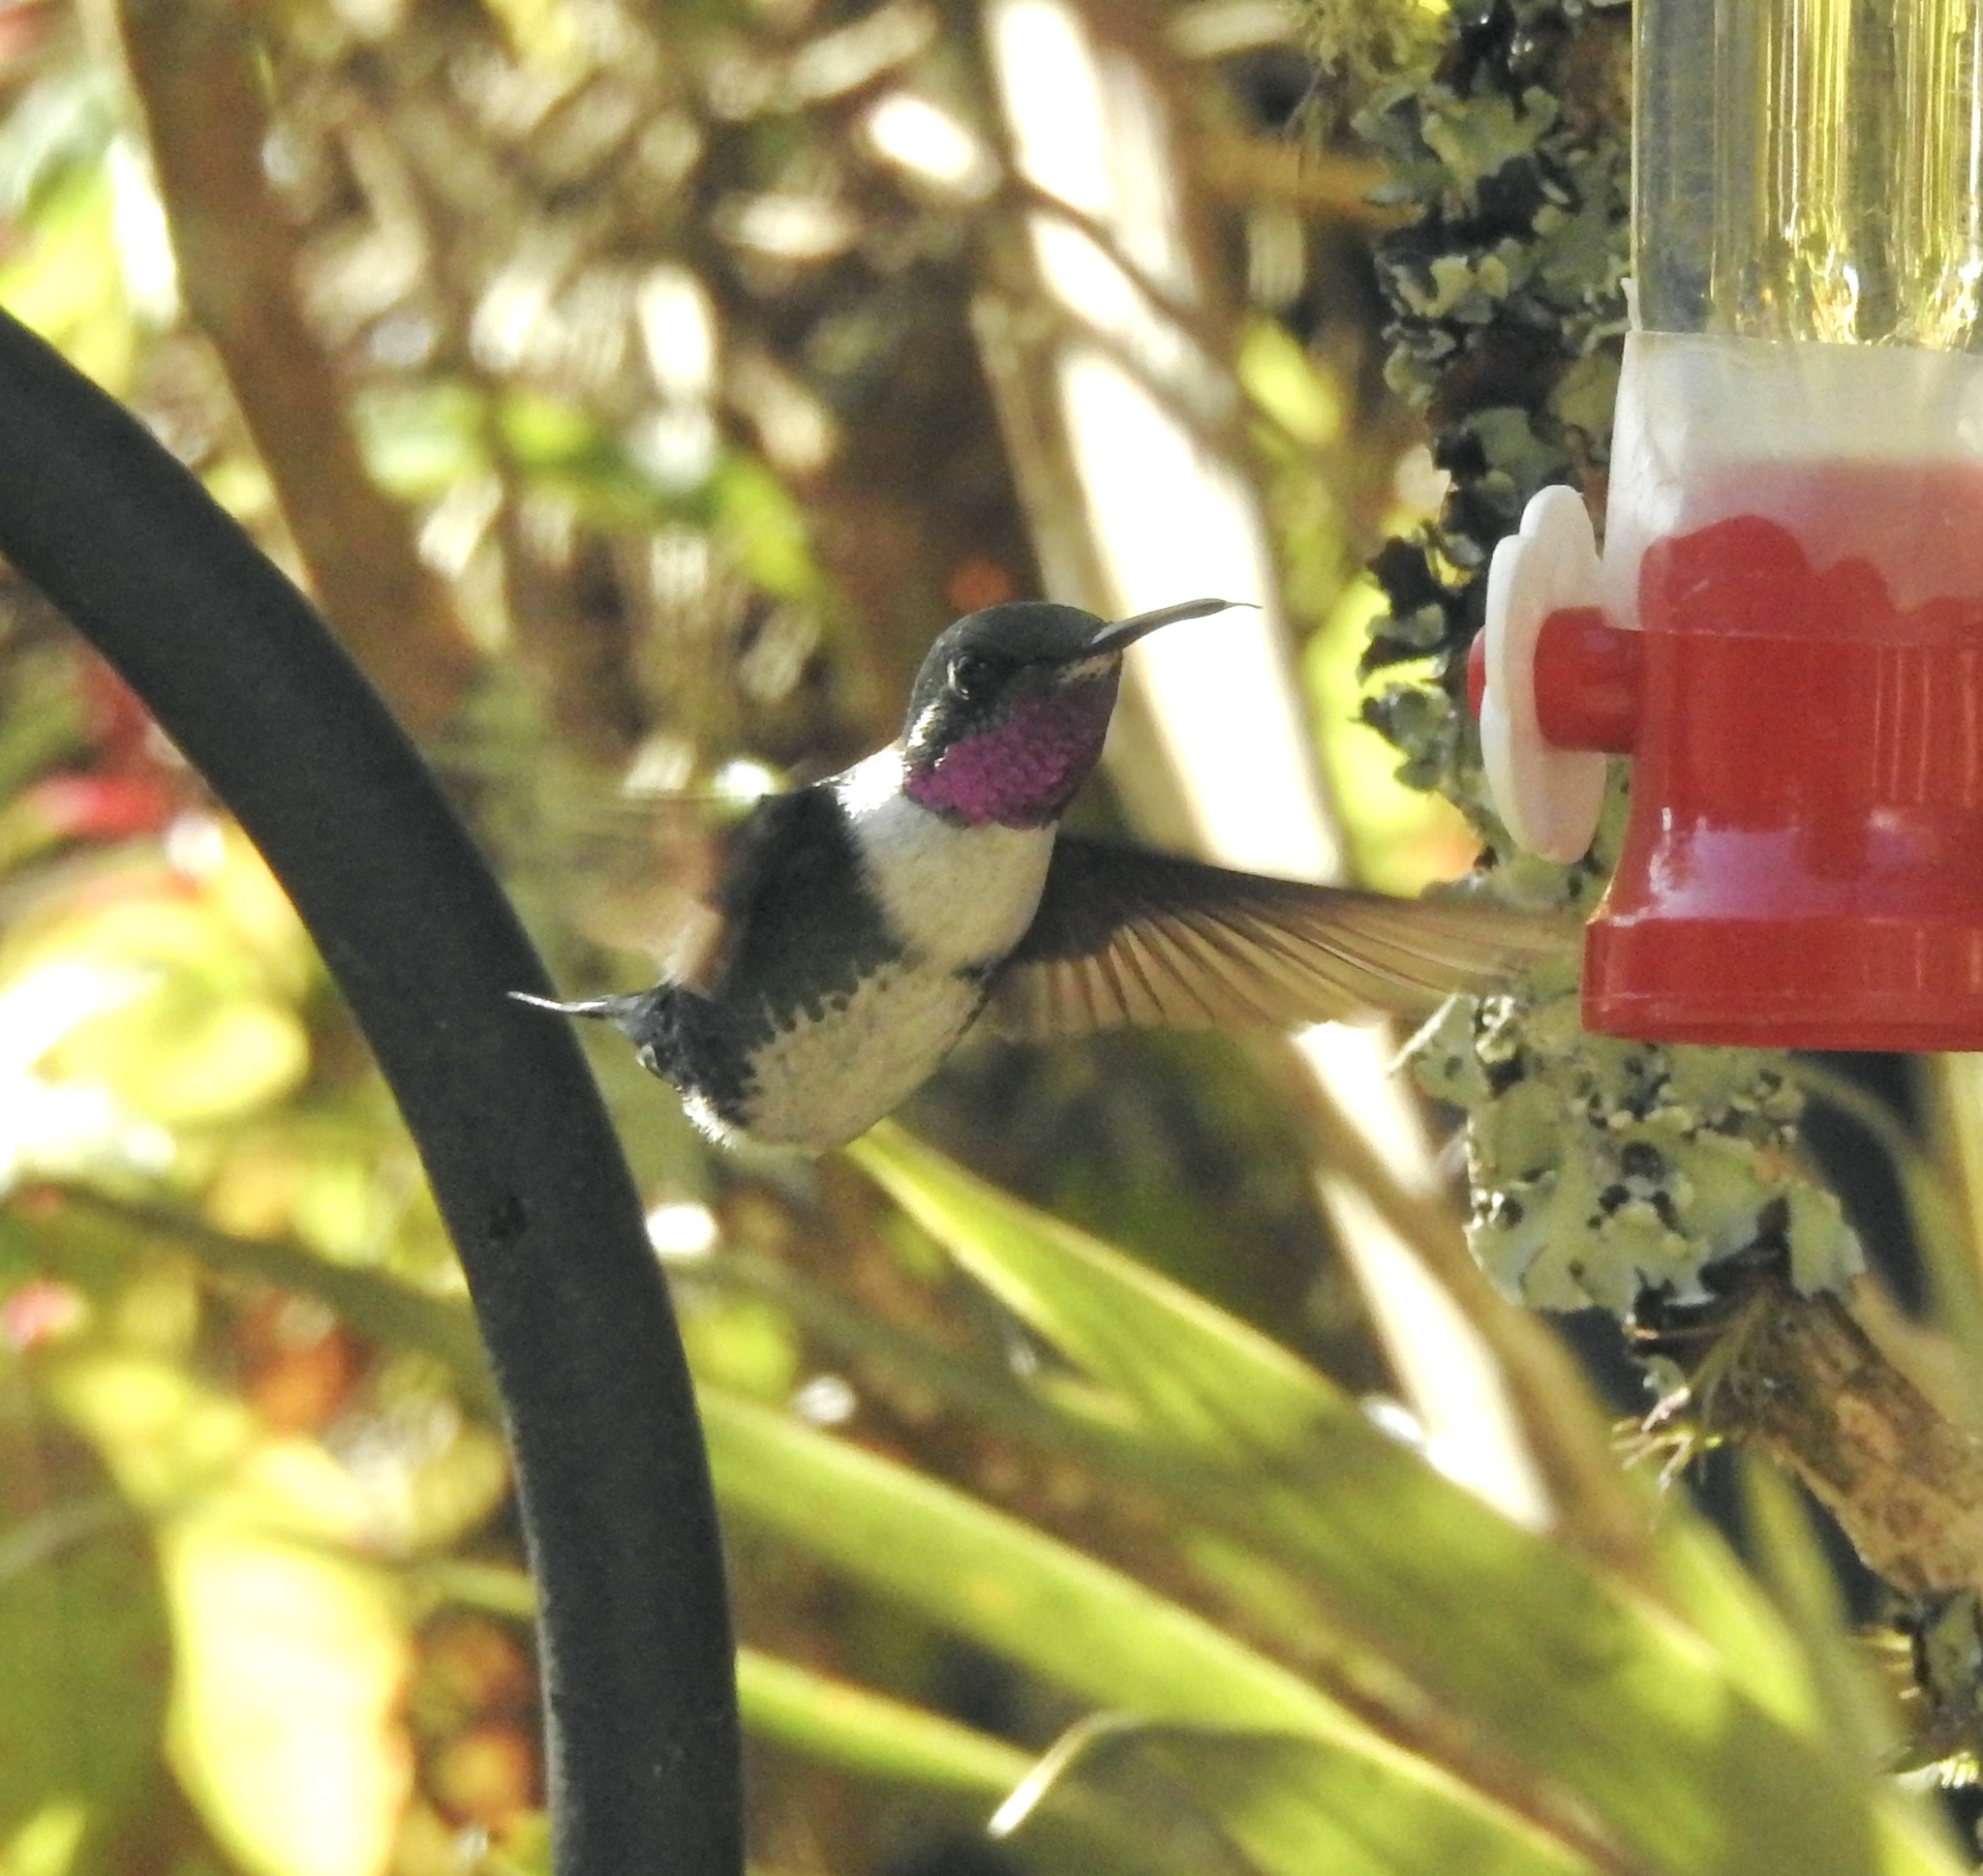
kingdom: Animalia
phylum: Chordata
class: Aves
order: Apodiformes
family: Trochilidae
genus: Chaetocercus
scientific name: Chaetocercus mulsant
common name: White-bellied woodstar
